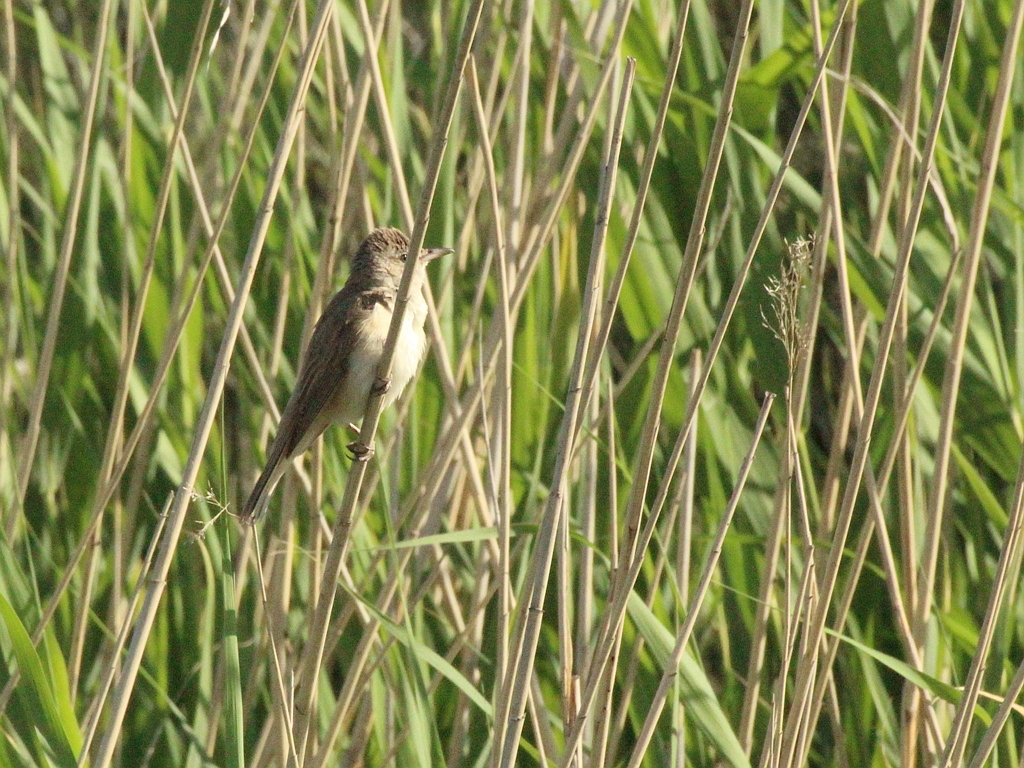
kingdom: Animalia
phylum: Chordata
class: Aves
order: Passeriformes
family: Acrocephalidae
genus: Acrocephalus
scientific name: Acrocephalus arundinaceus
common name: Great reed warbler
